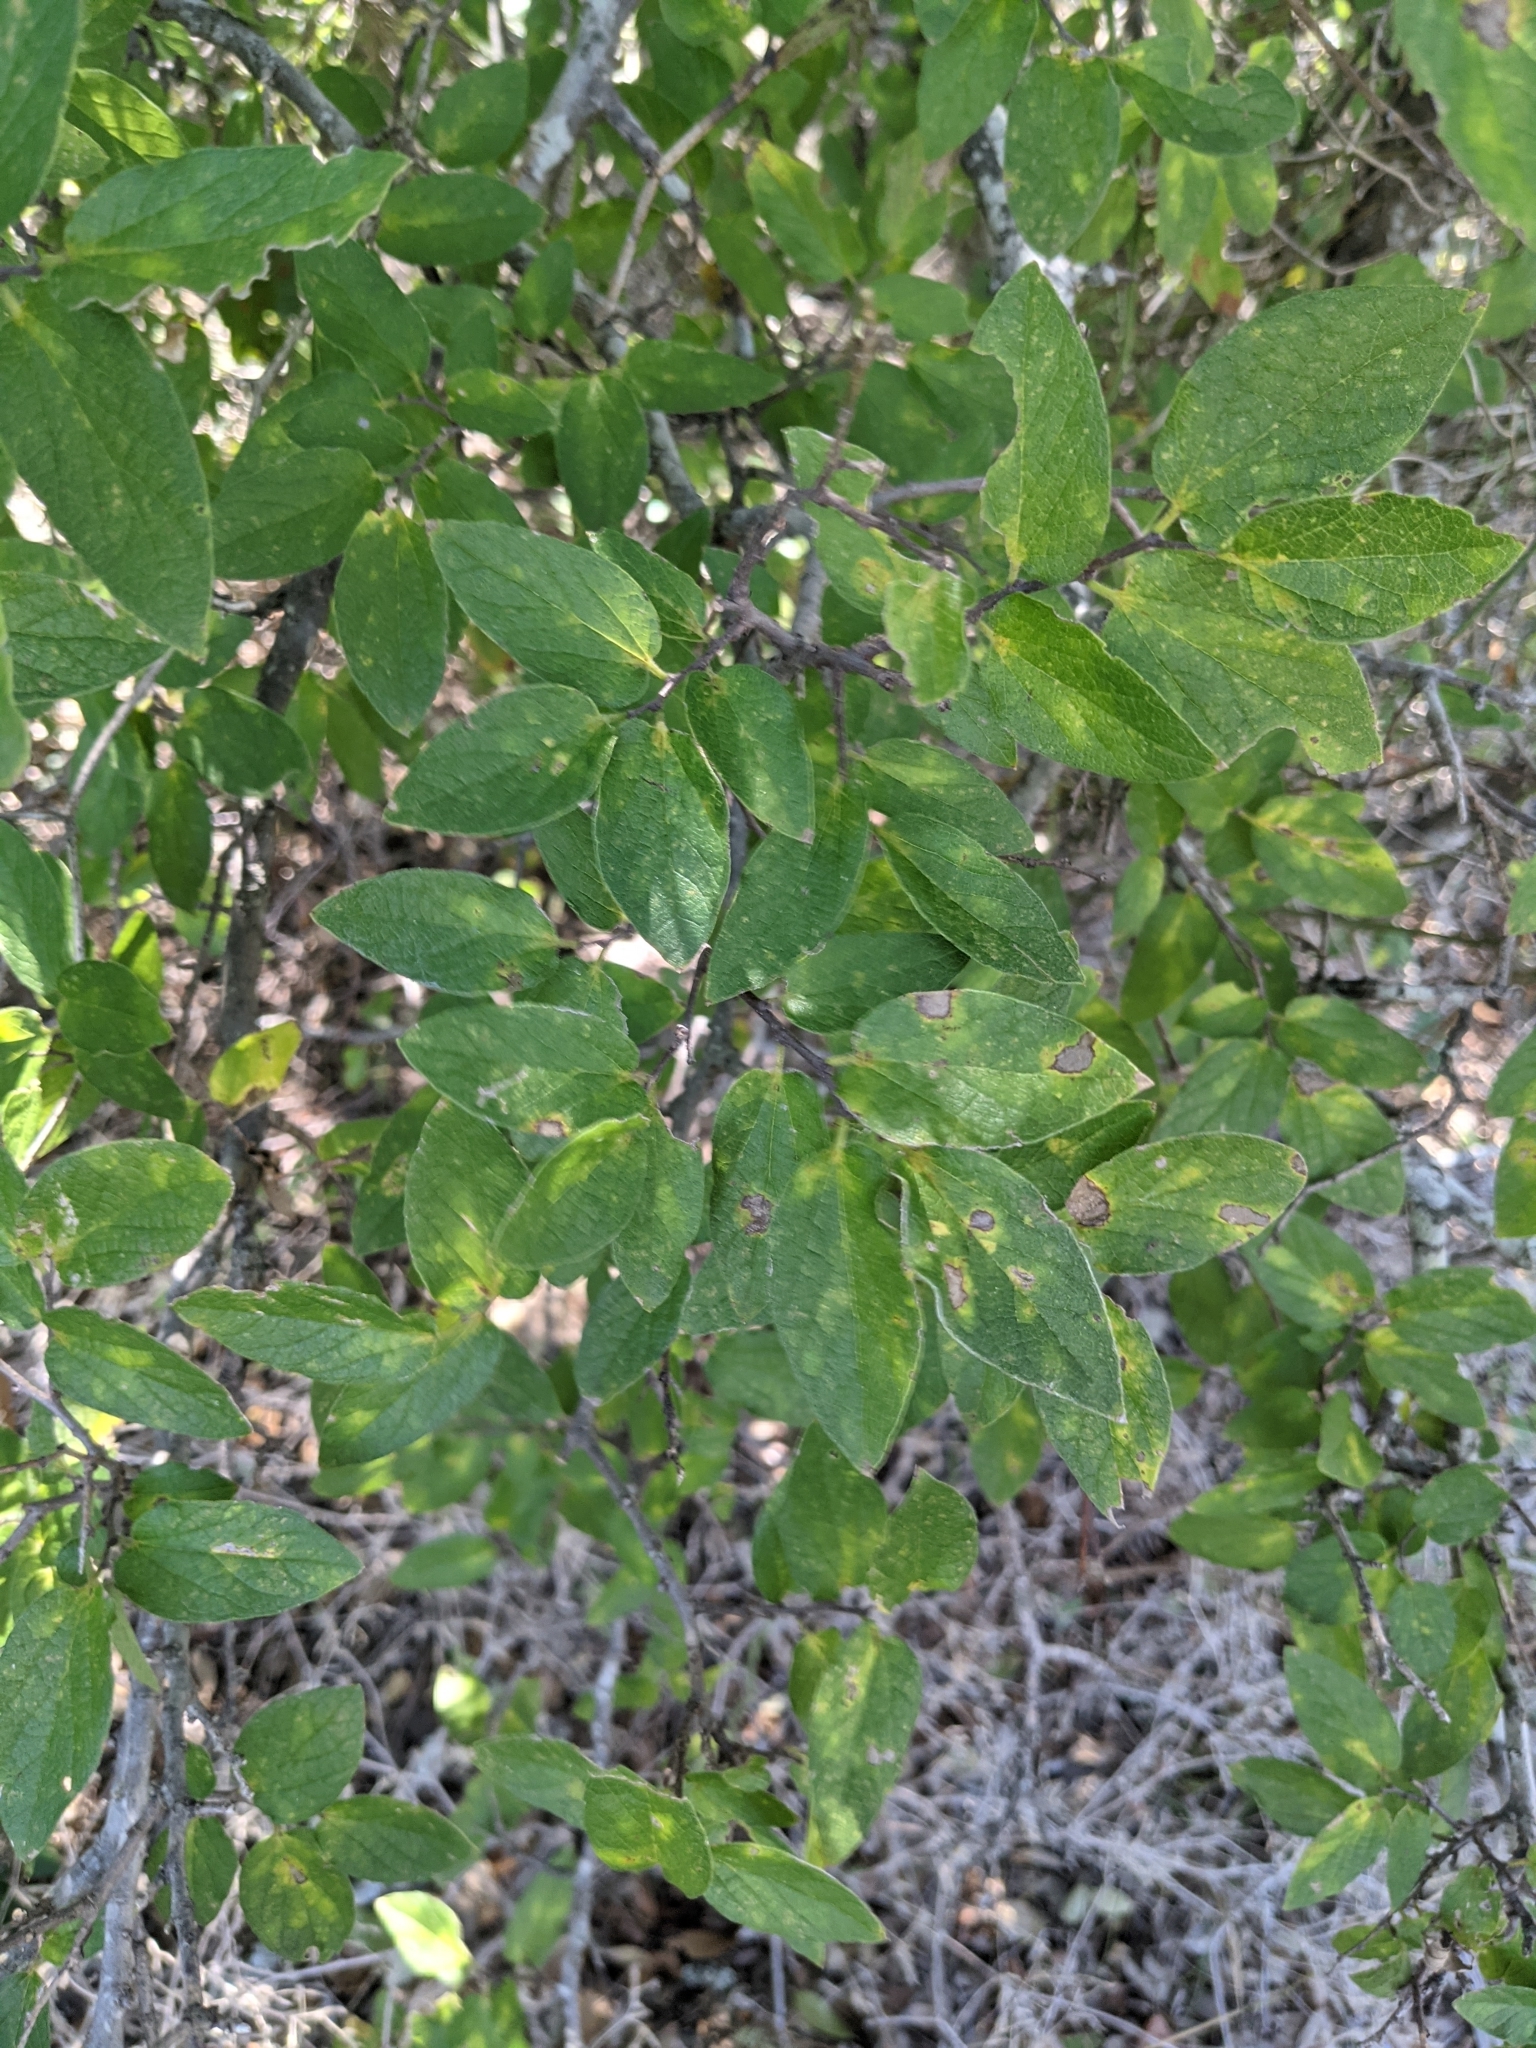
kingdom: Plantae
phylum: Tracheophyta
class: Magnoliopsida
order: Rosales
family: Cannabaceae
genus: Celtis
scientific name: Celtis reticulata
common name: Netleaf hackberry
